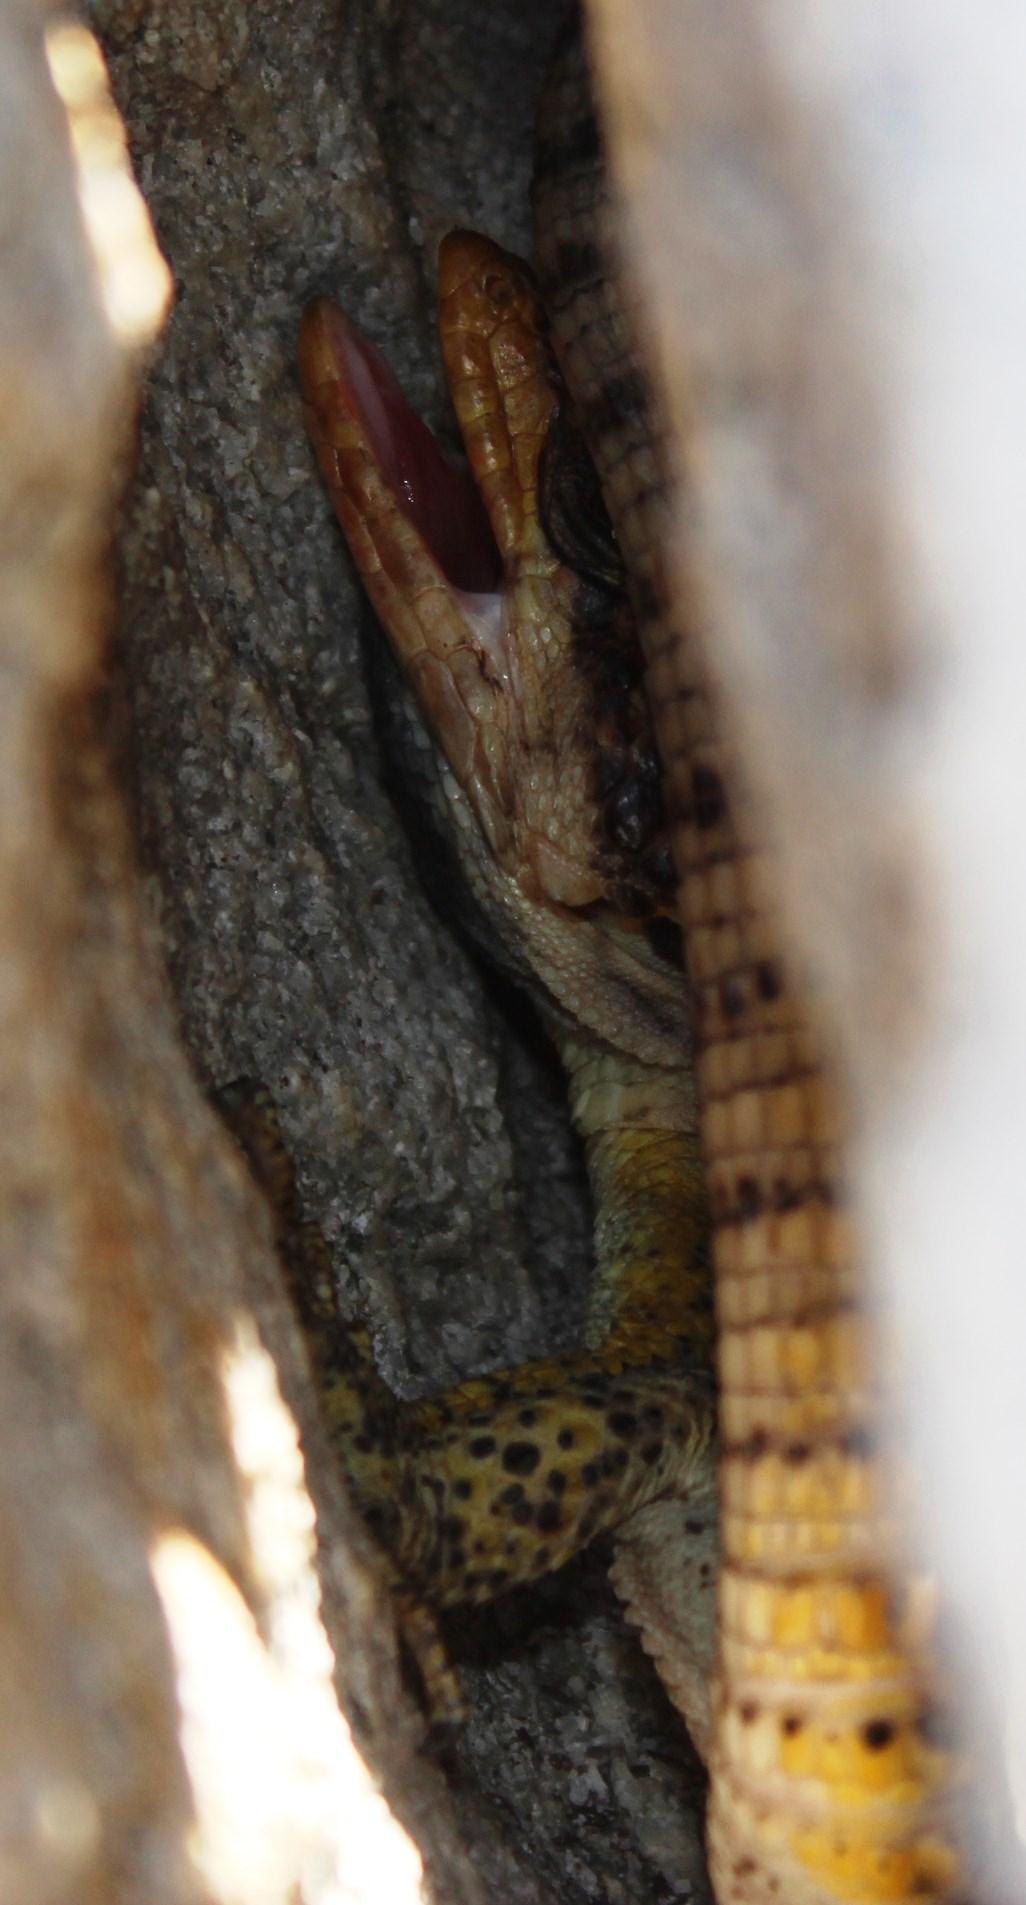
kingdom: Animalia
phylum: Chordata
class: Squamata
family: Cordylidae
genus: Pseudocordylus
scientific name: Pseudocordylus microlepidotus
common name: Cape crag lizard
